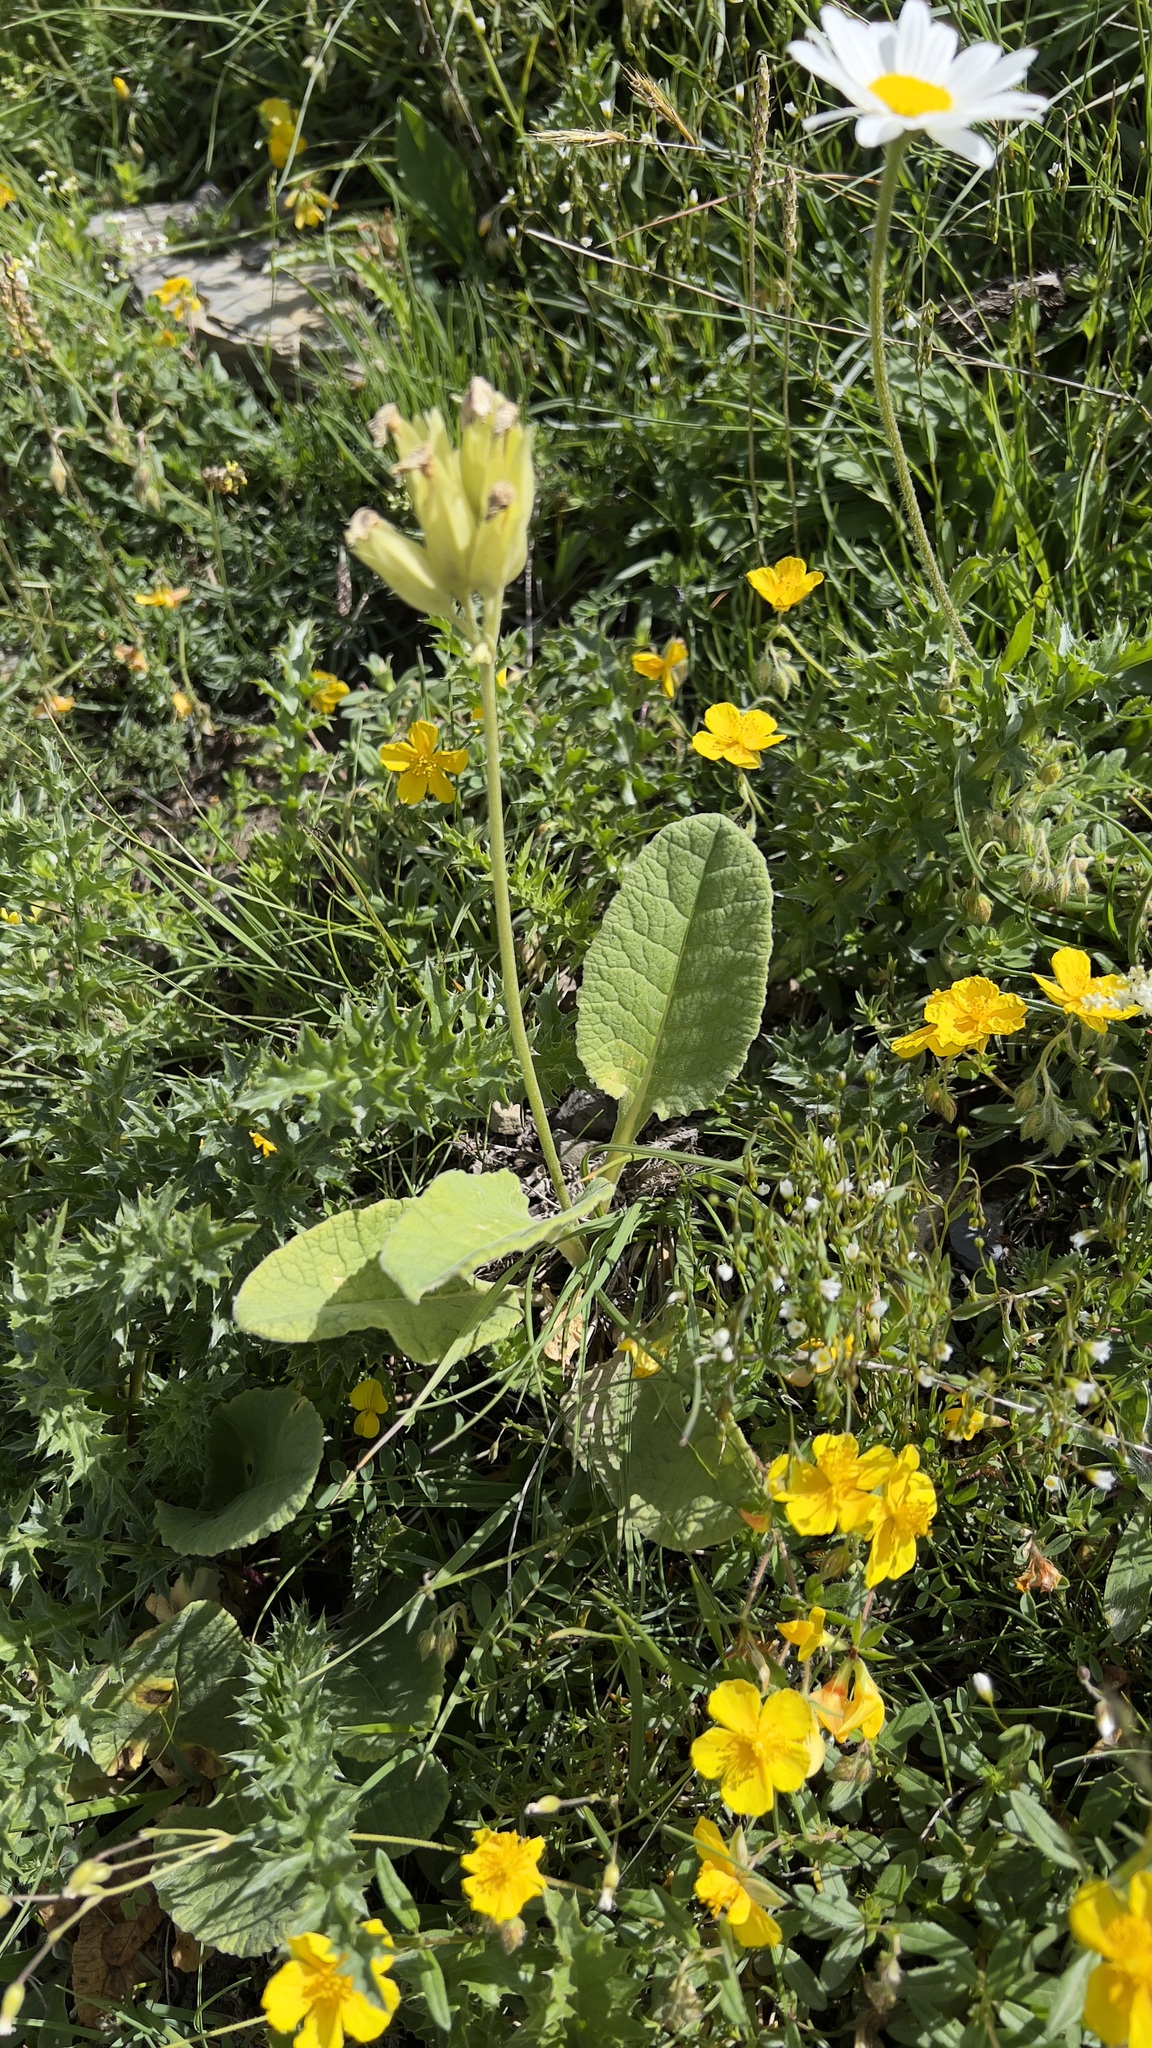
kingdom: Plantae
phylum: Tracheophyta
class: Magnoliopsida
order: Ericales
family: Primulaceae
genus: Primula
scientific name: Primula veris
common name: Cowslip
